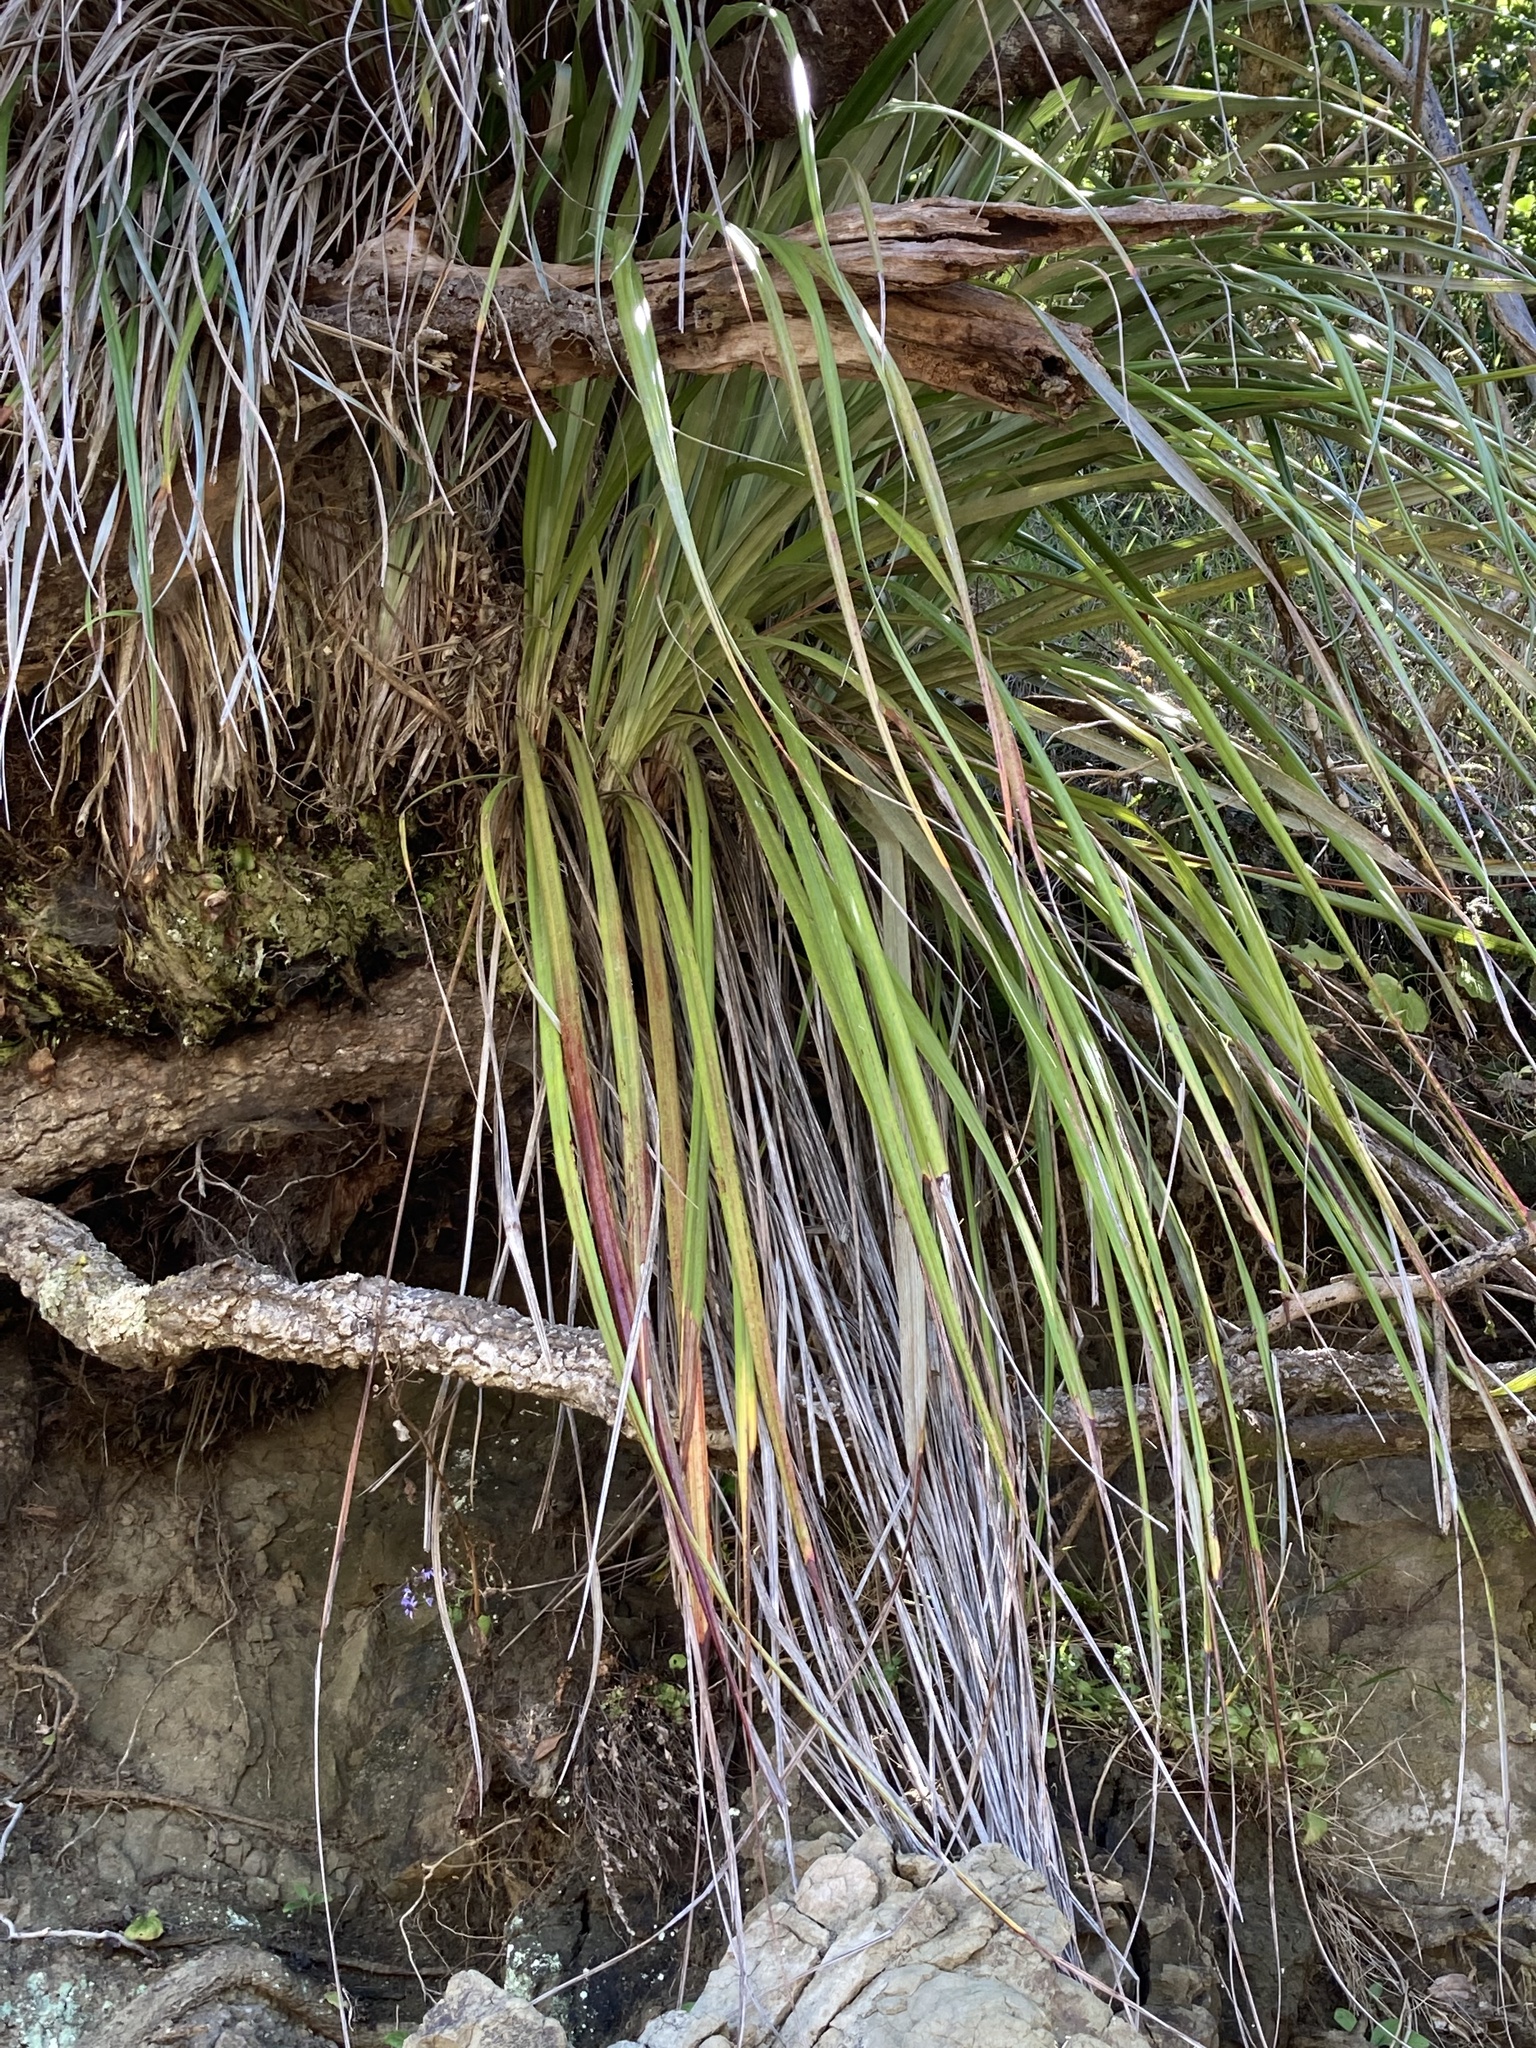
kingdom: Plantae
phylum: Tracheophyta
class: Liliopsida
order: Asparagales
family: Asteliaceae
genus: Astelia
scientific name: Astelia banksii
